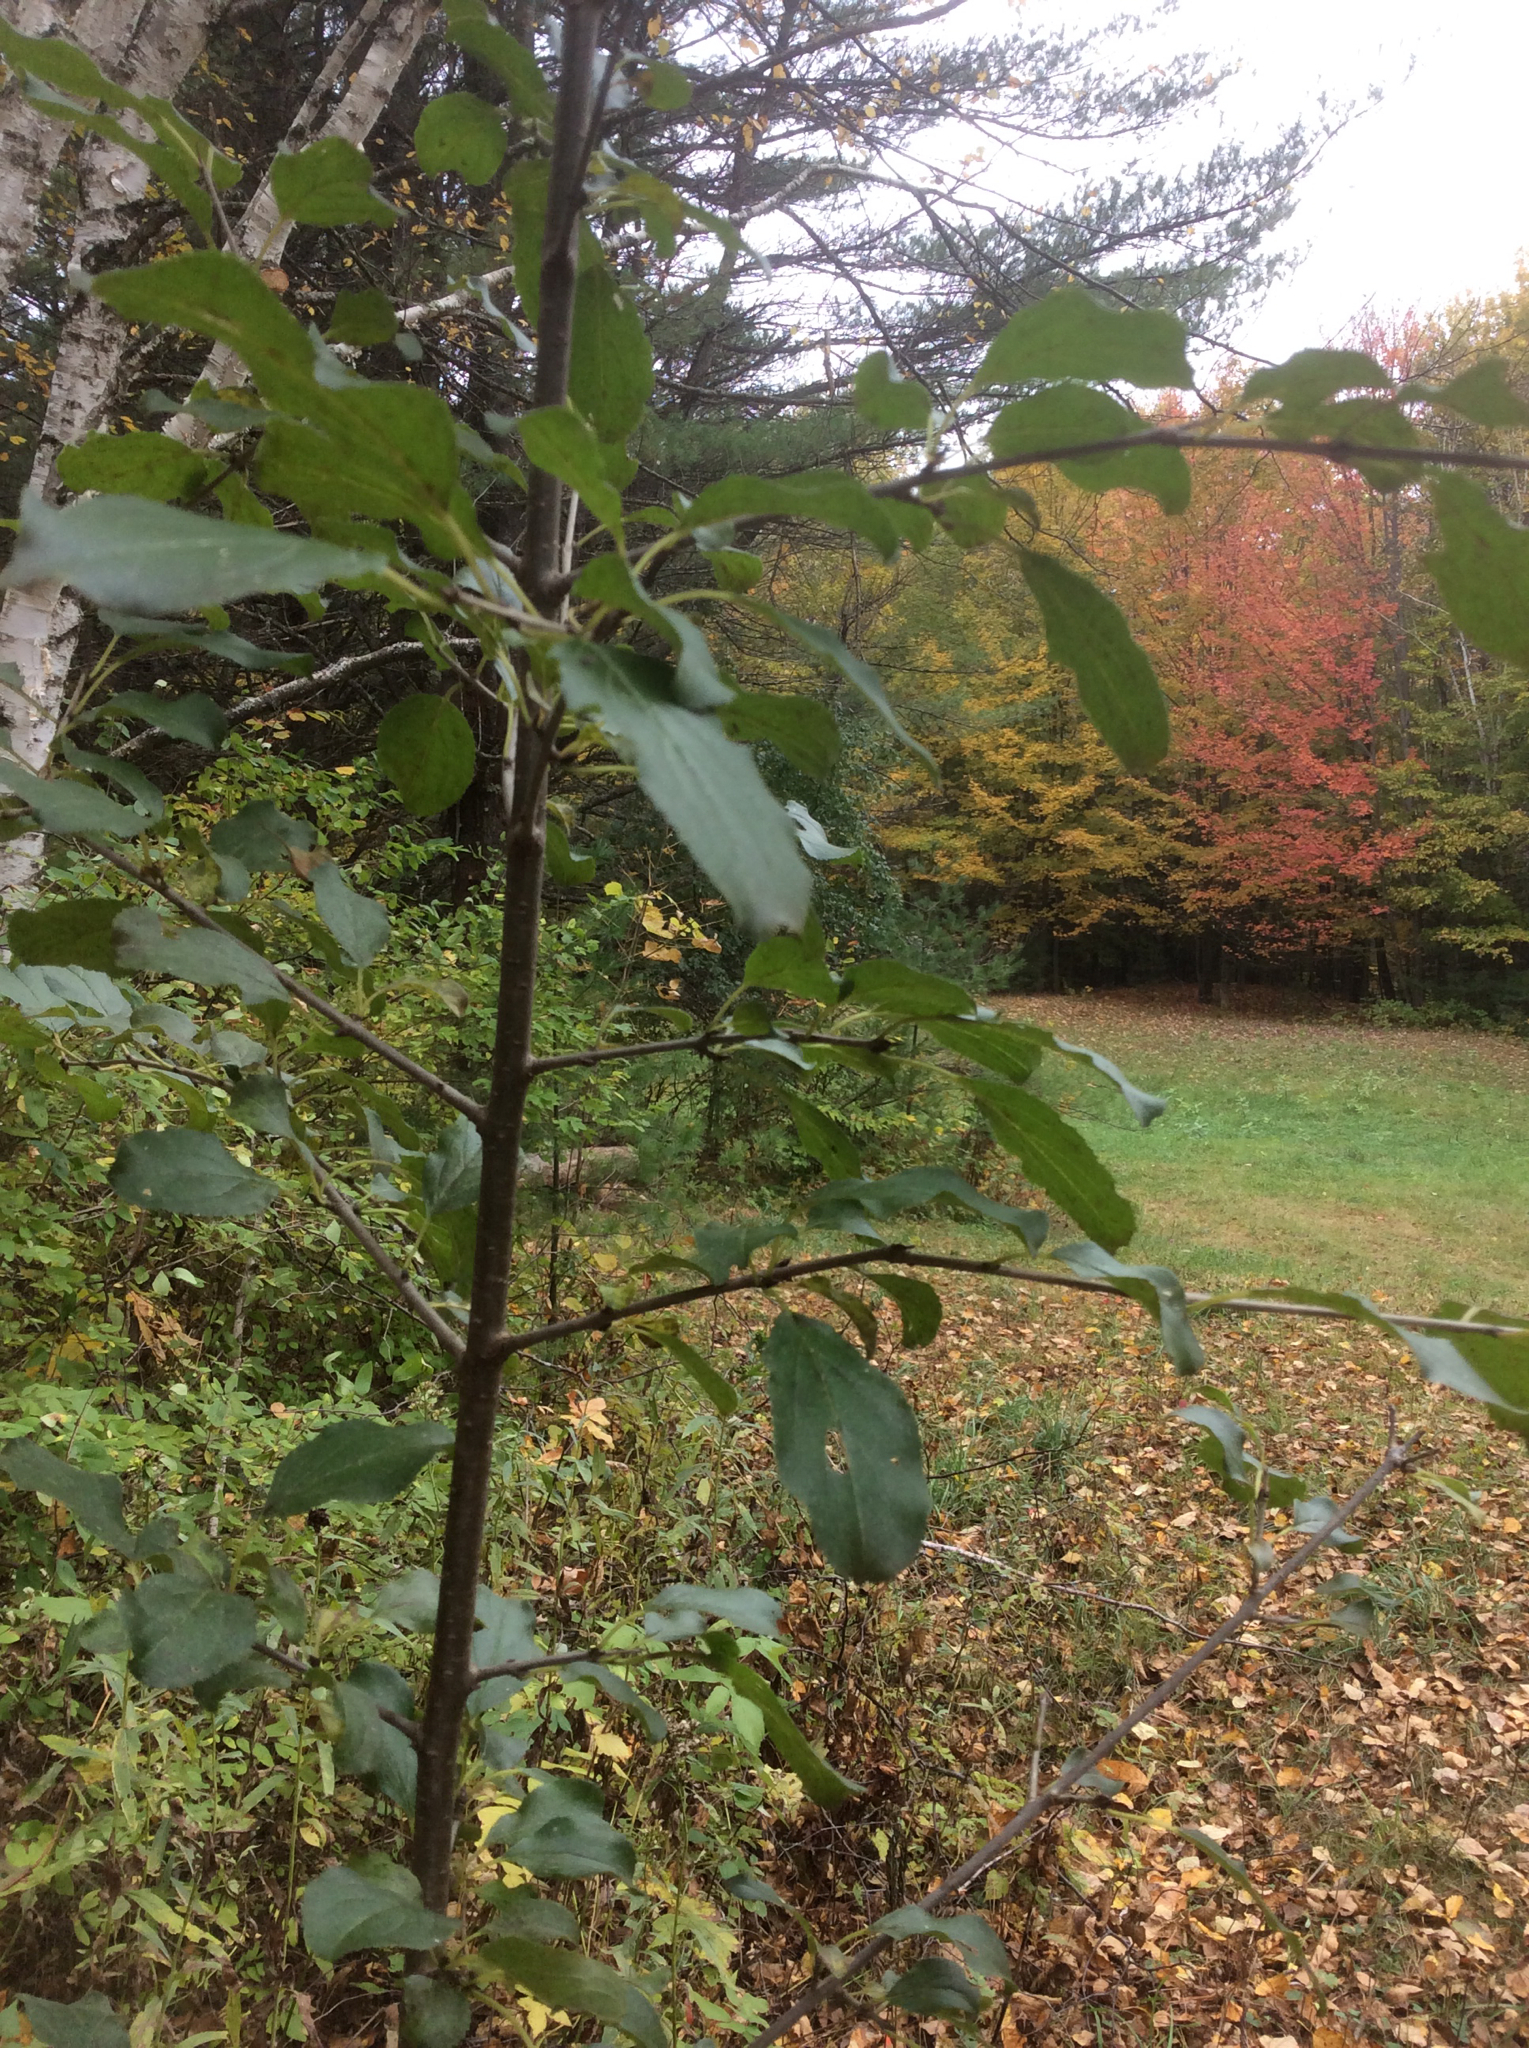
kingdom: Plantae
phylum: Tracheophyta
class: Magnoliopsida
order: Rosales
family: Rhamnaceae
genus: Rhamnus
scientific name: Rhamnus cathartica
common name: Common buckthorn
